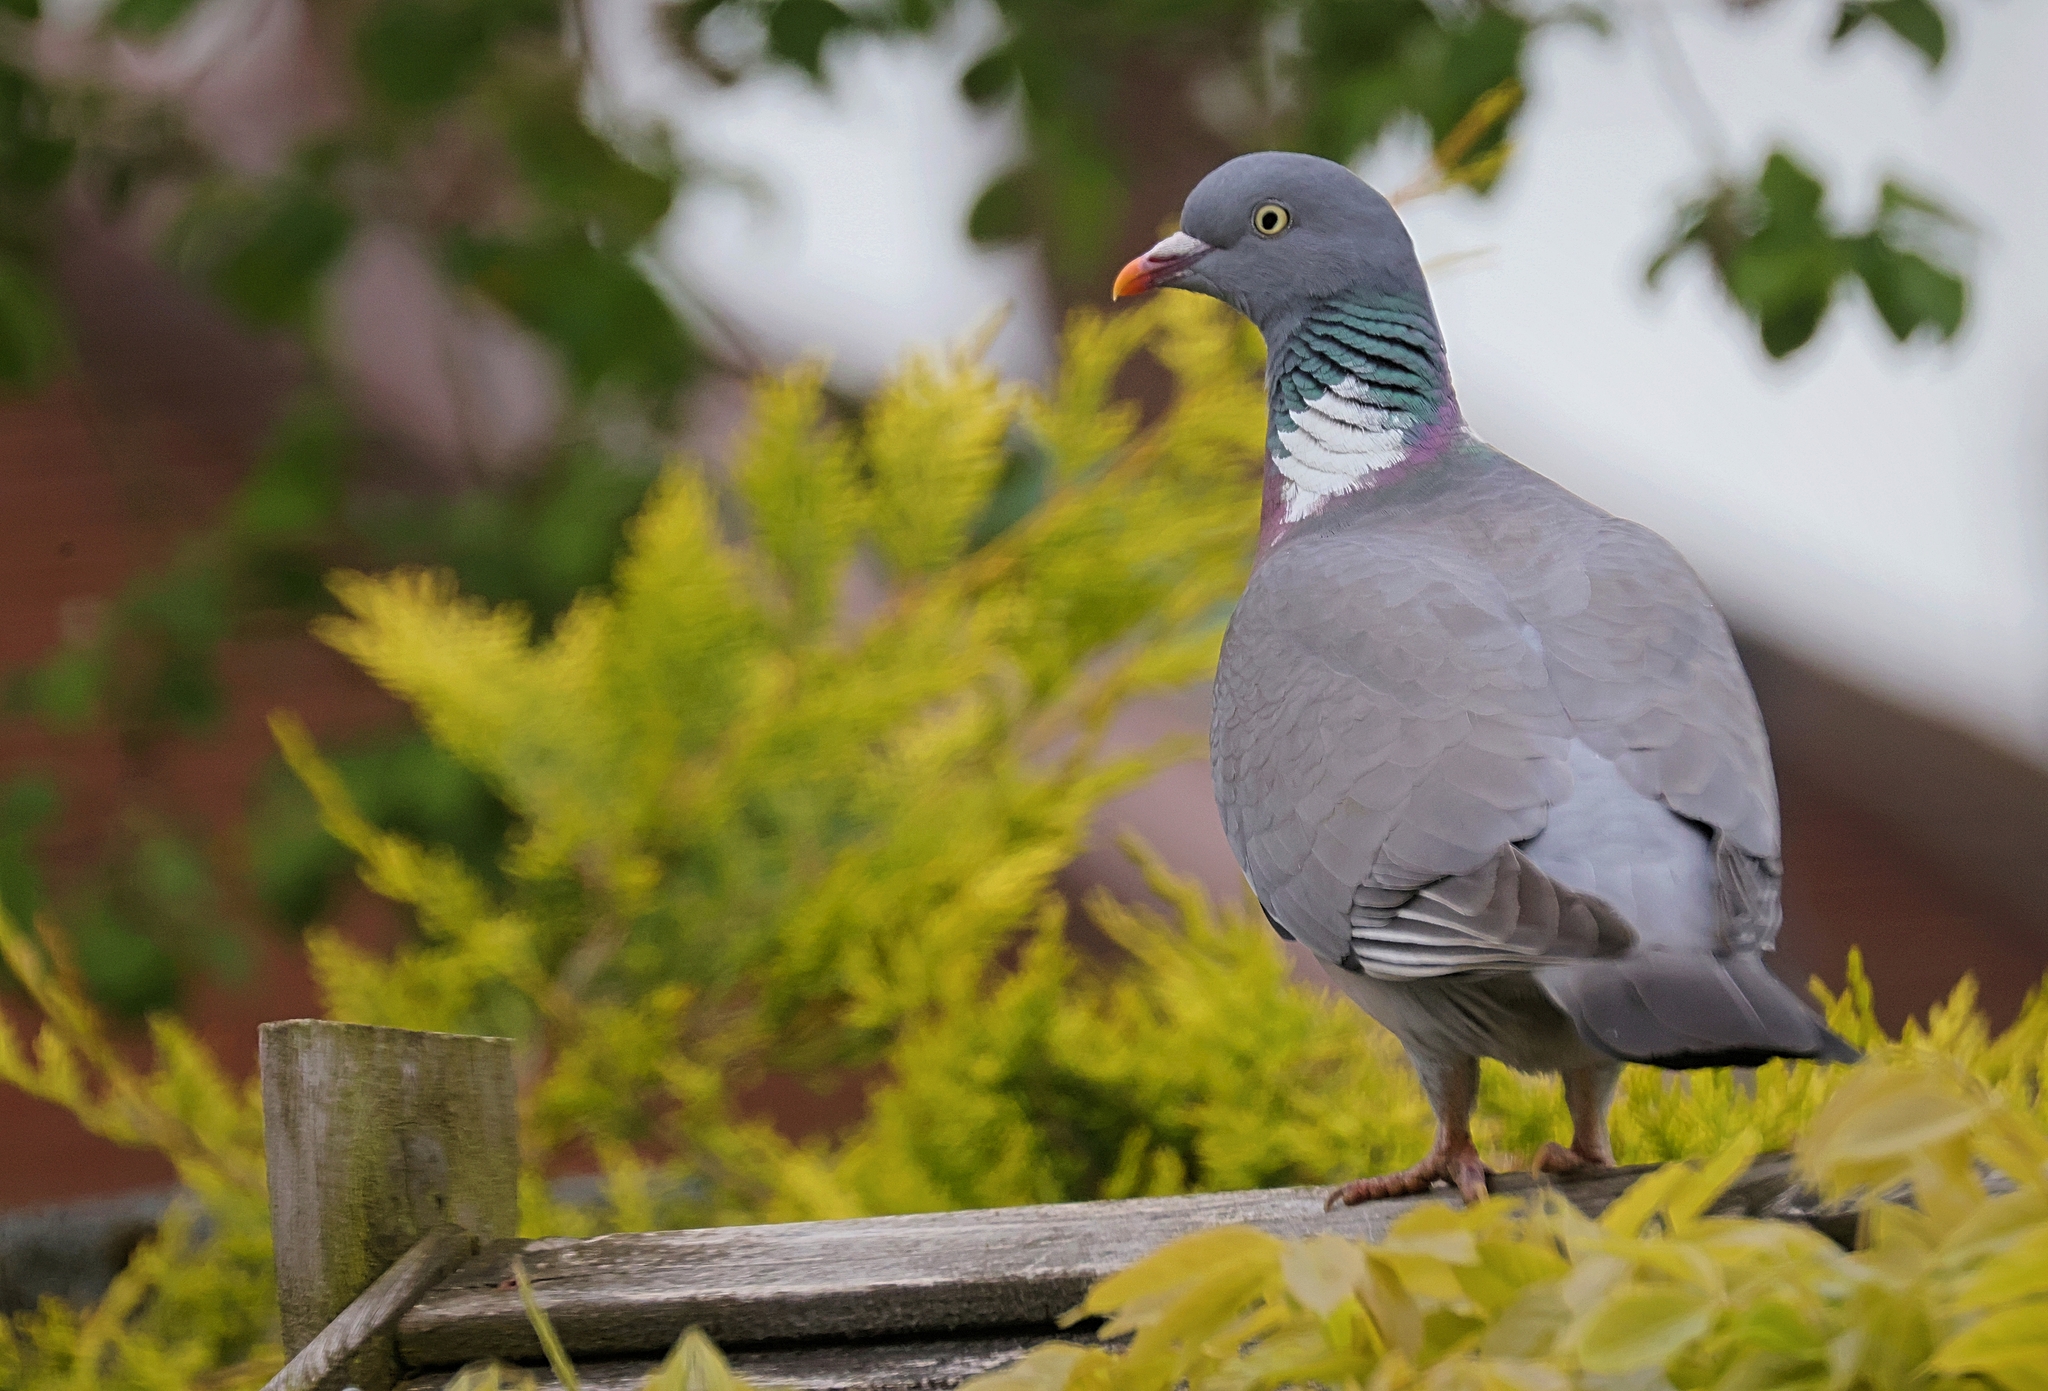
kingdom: Animalia
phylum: Chordata
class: Aves
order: Columbiformes
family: Columbidae
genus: Columba
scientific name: Columba palumbus
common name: Common wood pigeon
